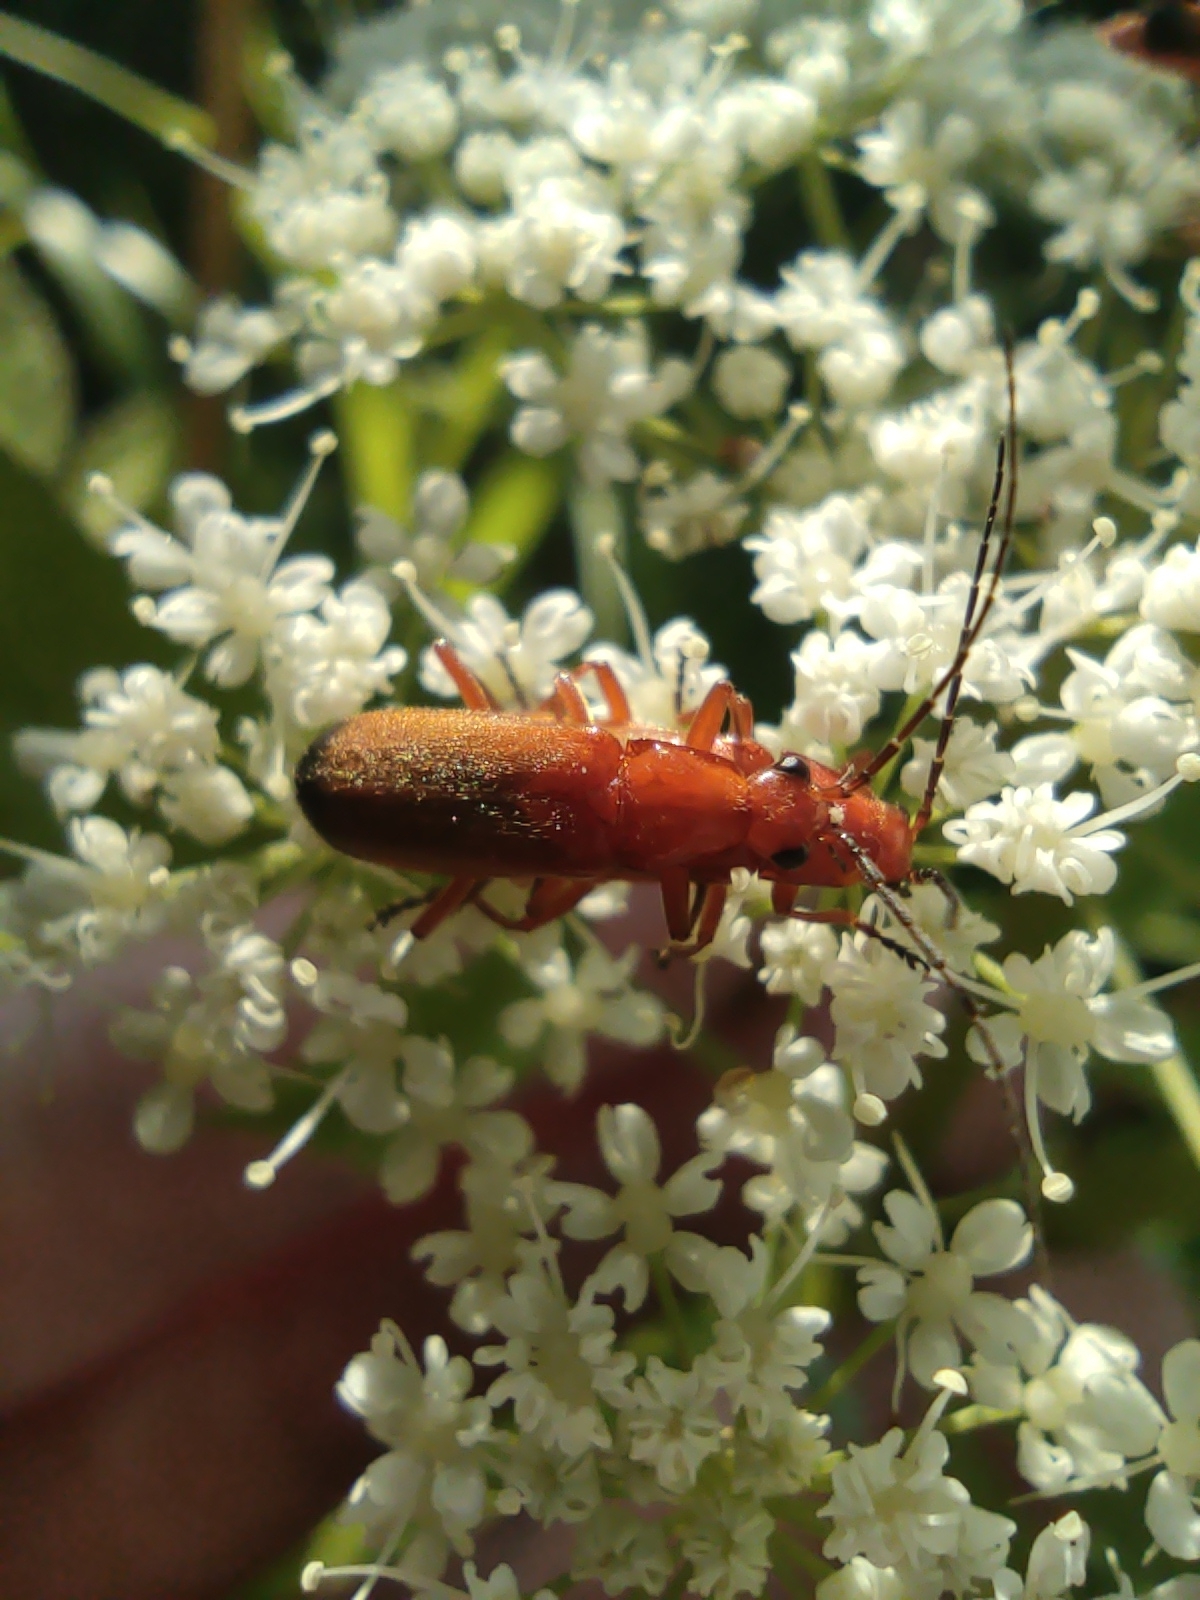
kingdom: Animalia
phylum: Arthropoda
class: Insecta
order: Coleoptera
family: Cantharidae
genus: Rhagonycha
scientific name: Rhagonycha fulva
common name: Common red soldier beetle
